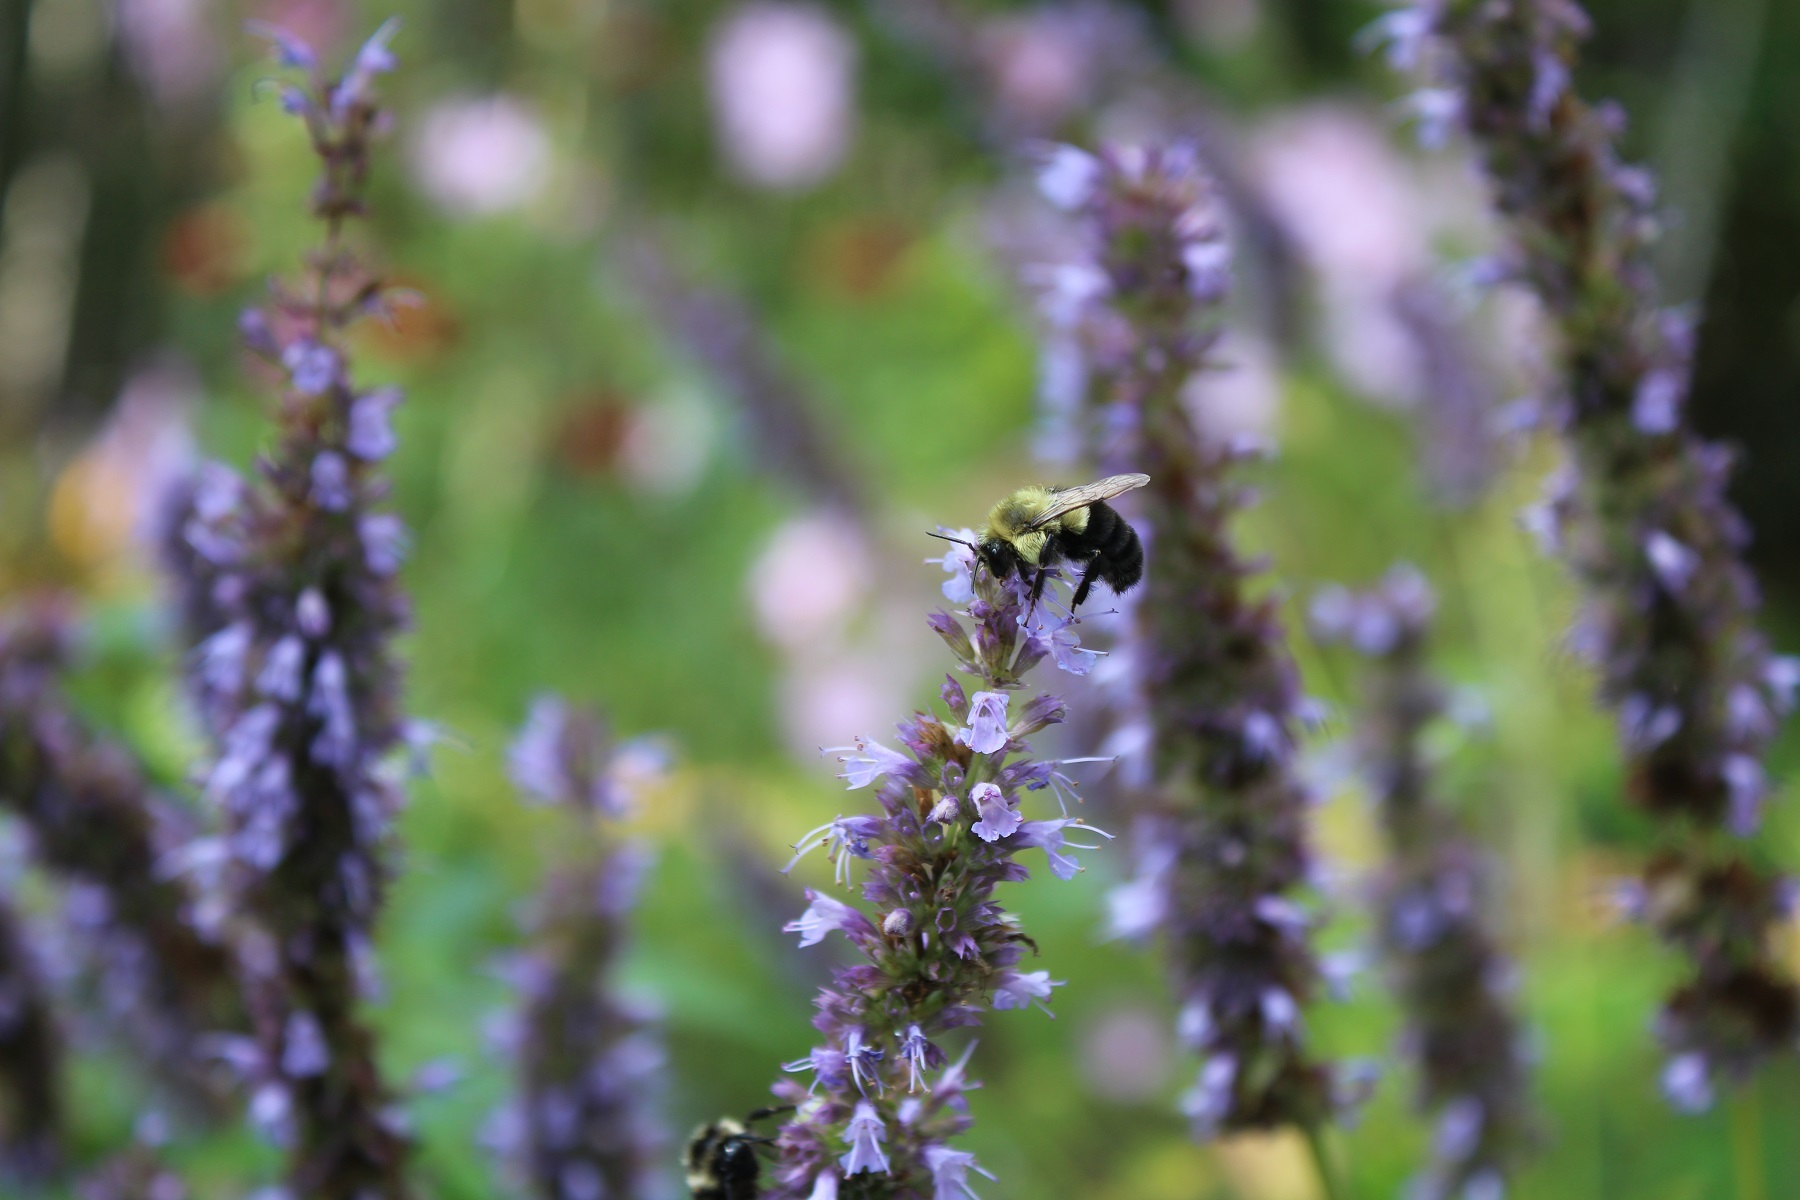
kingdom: Animalia
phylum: Arthropoda
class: Insecta
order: Hymenoptera
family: Apidae
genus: Bombus
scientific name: Bombus impatiens
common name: Common eastern bumble bee
